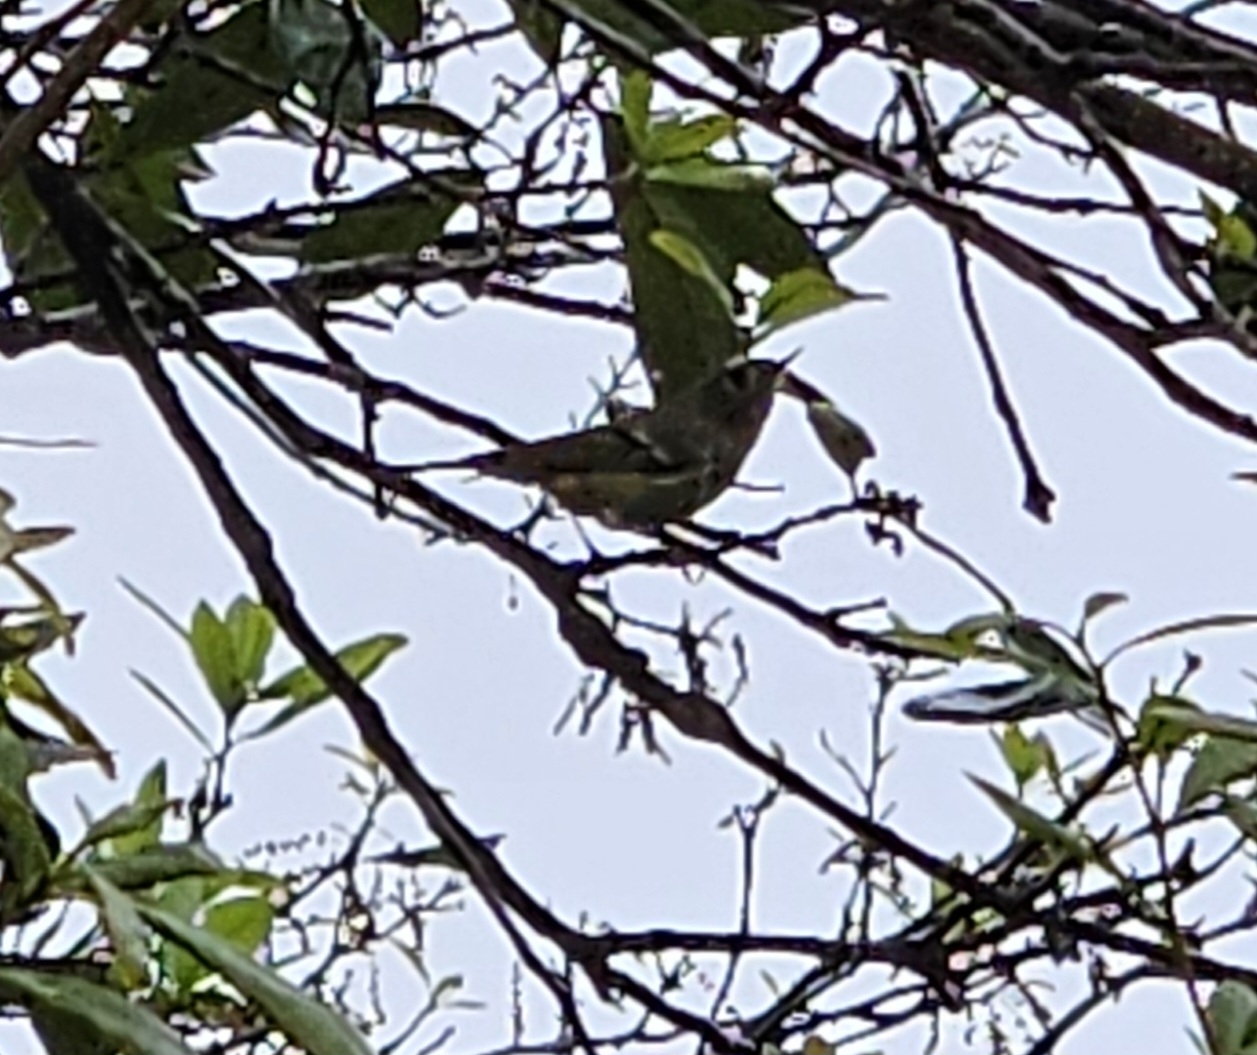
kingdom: Animalia
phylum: Chordata
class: Aves
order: Passeriformes
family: Regulidae
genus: Regulus
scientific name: Regulus calendula
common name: Ruby-crowned kinglet
